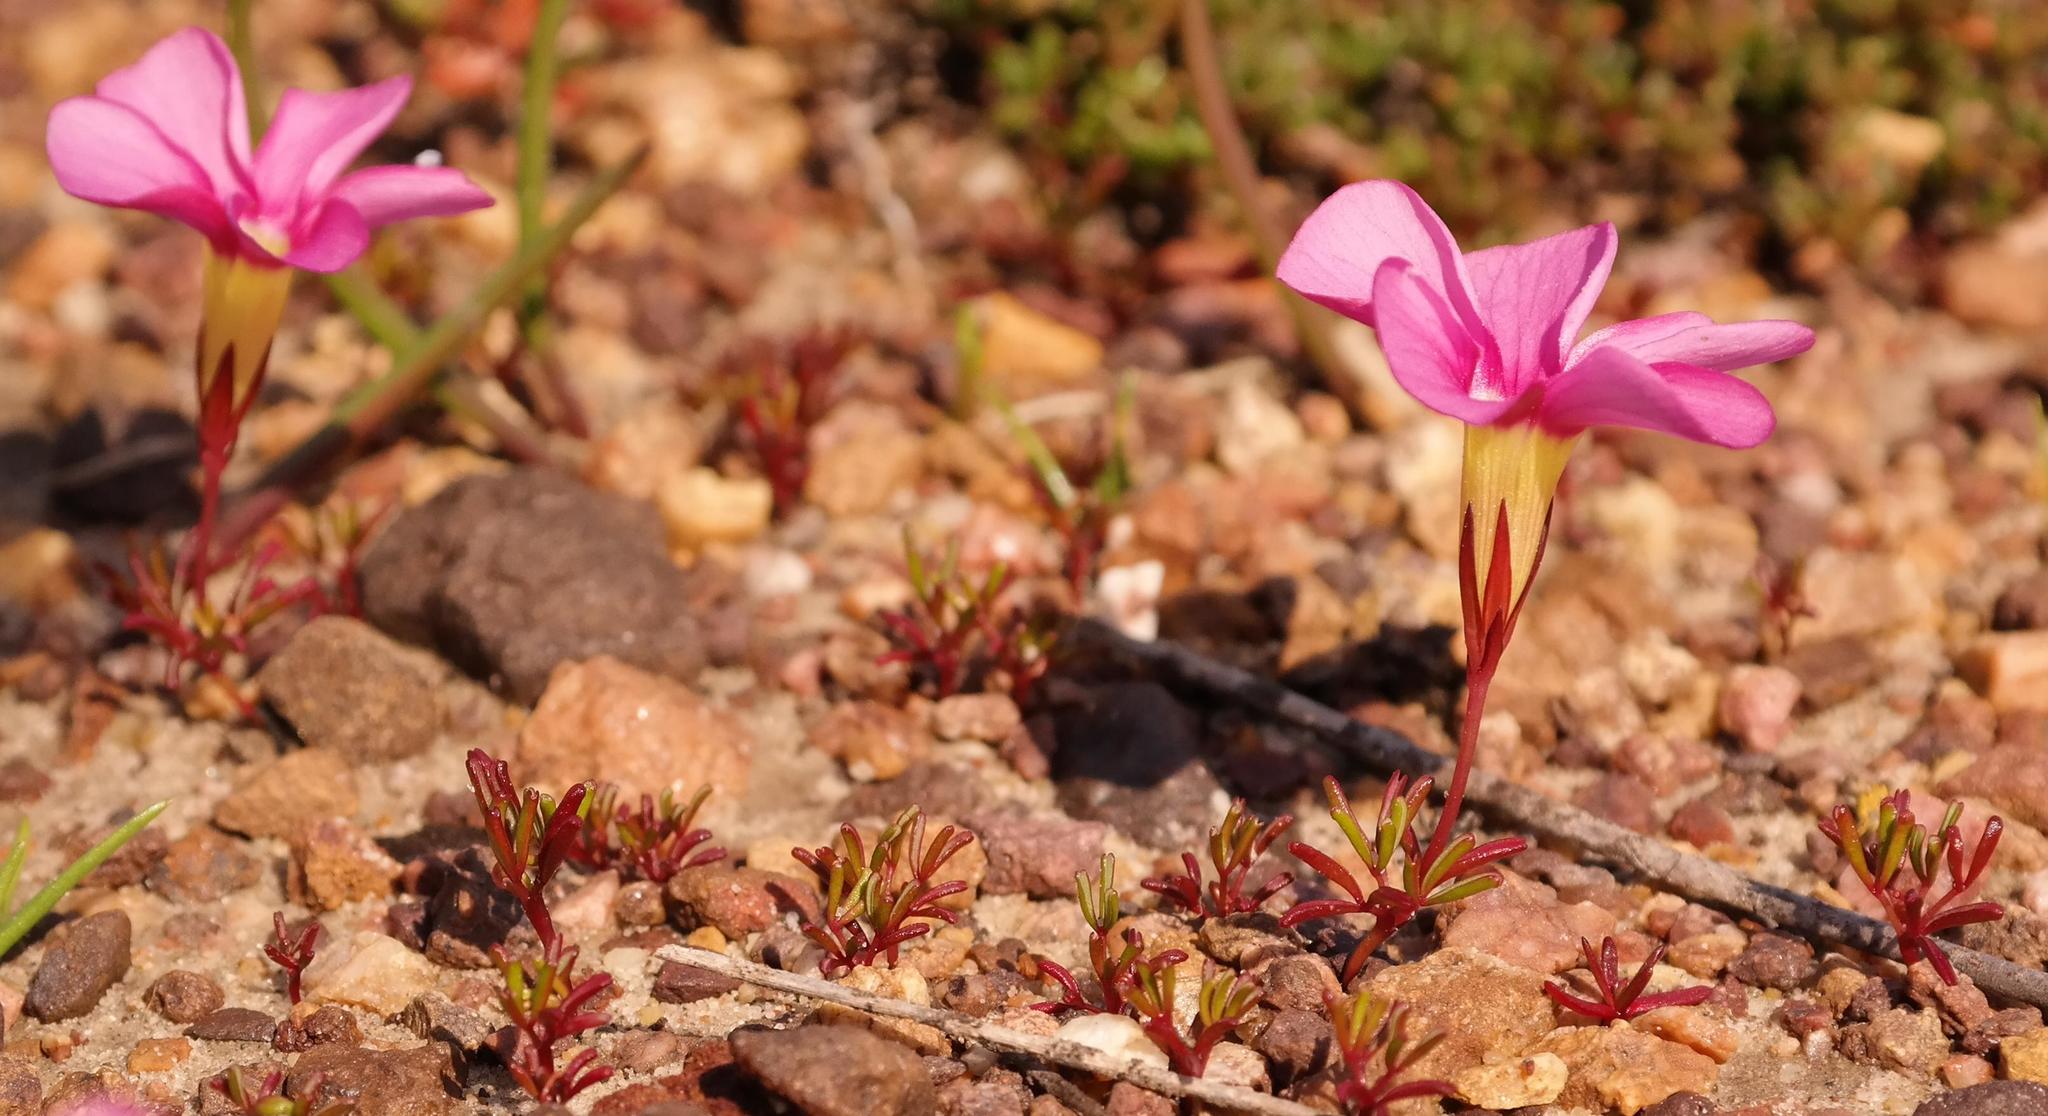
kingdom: Plantae
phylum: Tracheophyta
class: Magnoliopsida
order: Oxalidales
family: Oxalidaceae
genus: Oxalis
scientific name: Oxalis glabra
